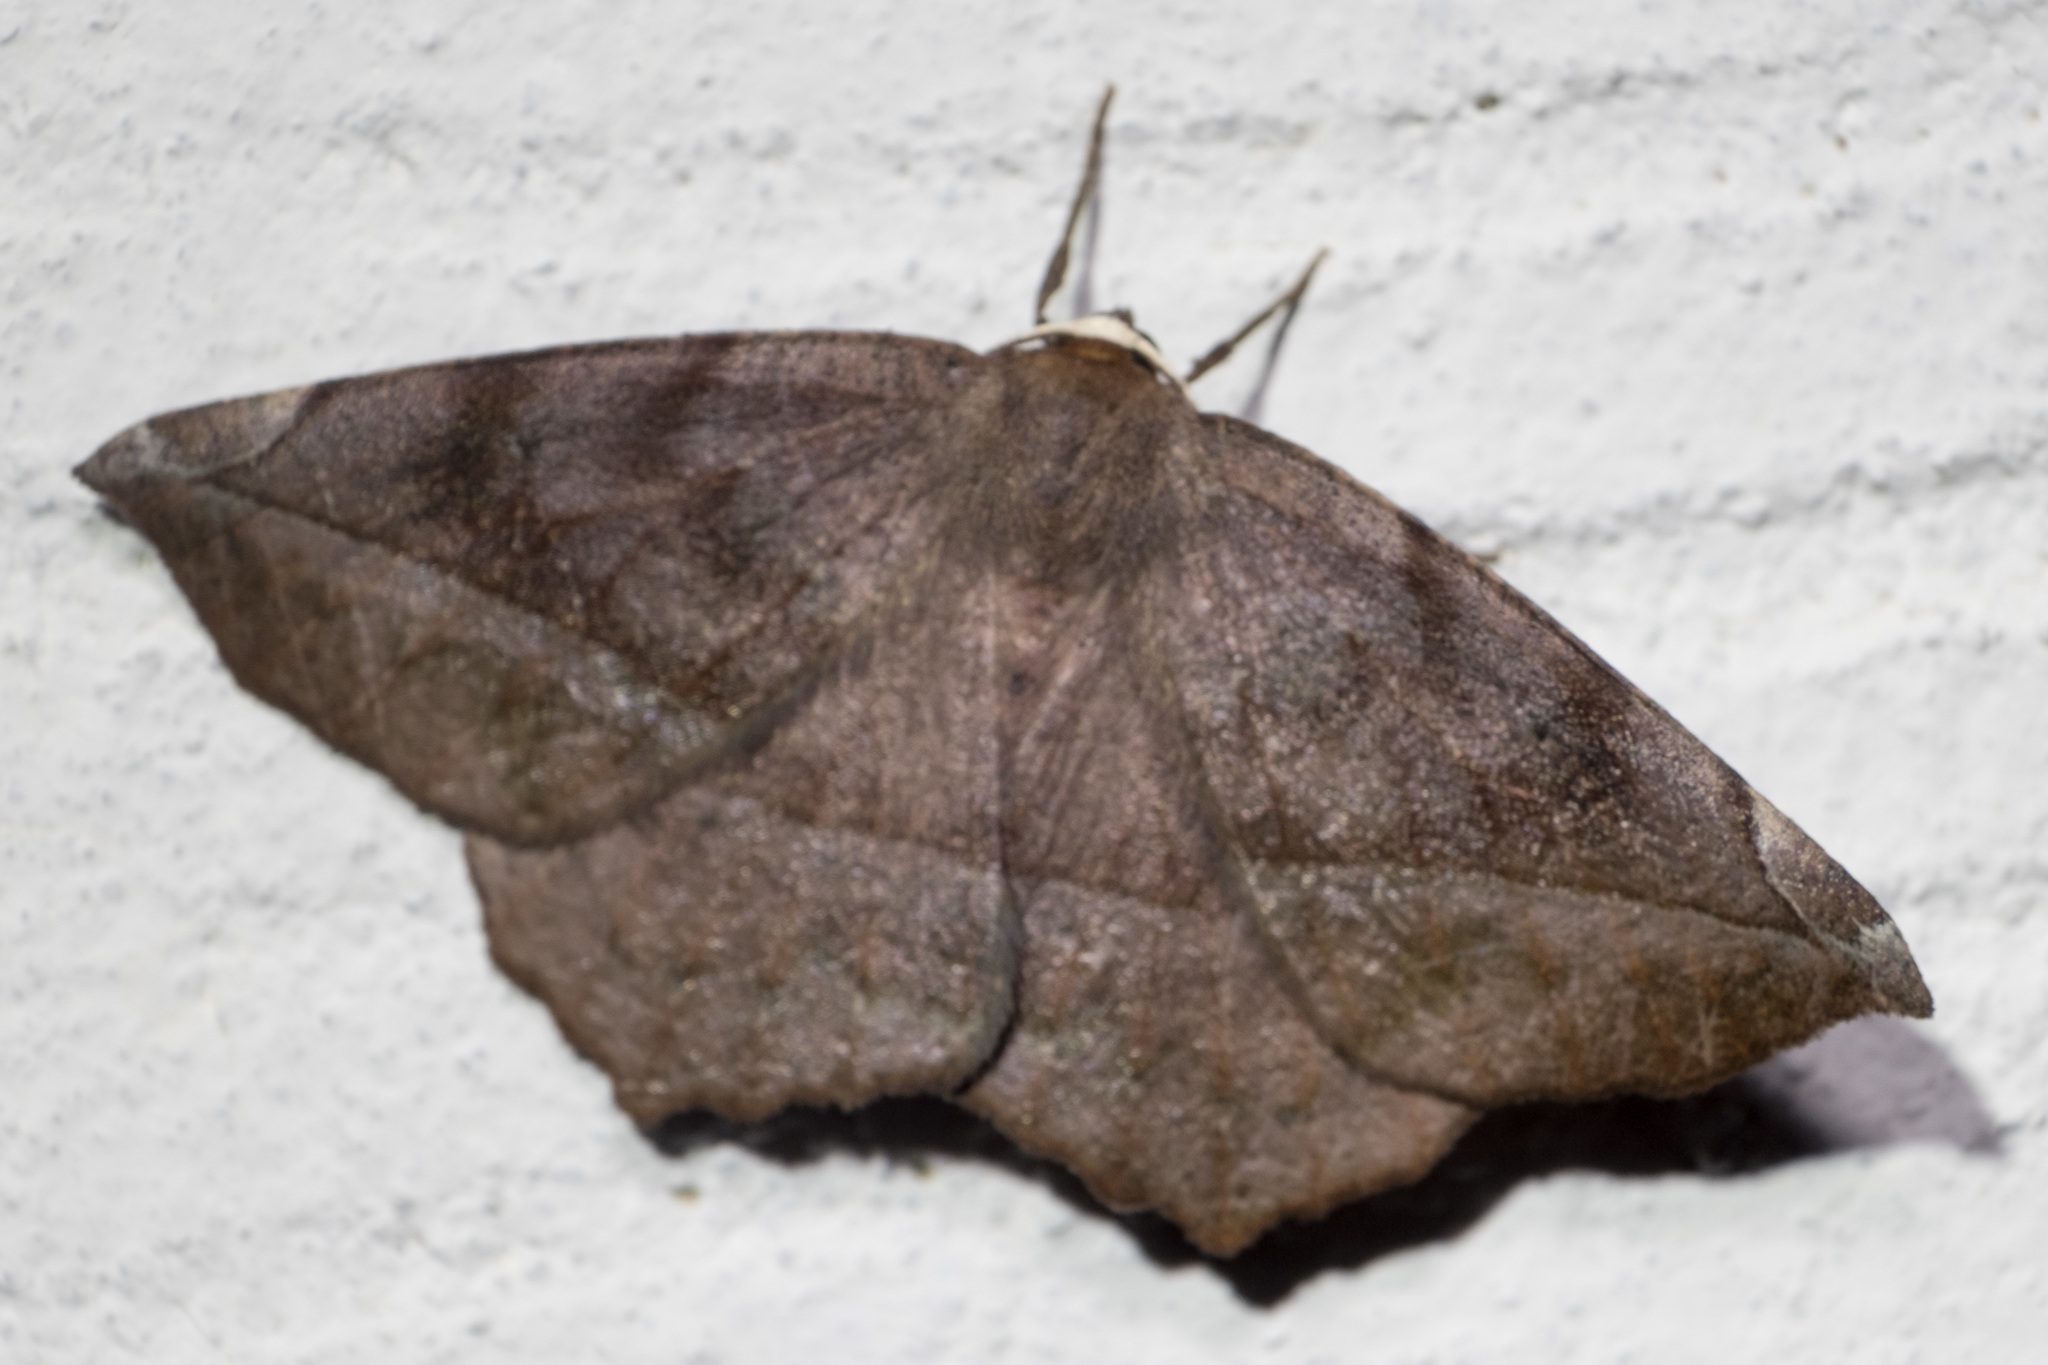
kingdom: Animalia
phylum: Arthropoda
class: Insecta
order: Lepidoptera
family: Geometridae
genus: Eutrapela
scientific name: Eutrapela clemataria
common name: Curved-toothed geometer
